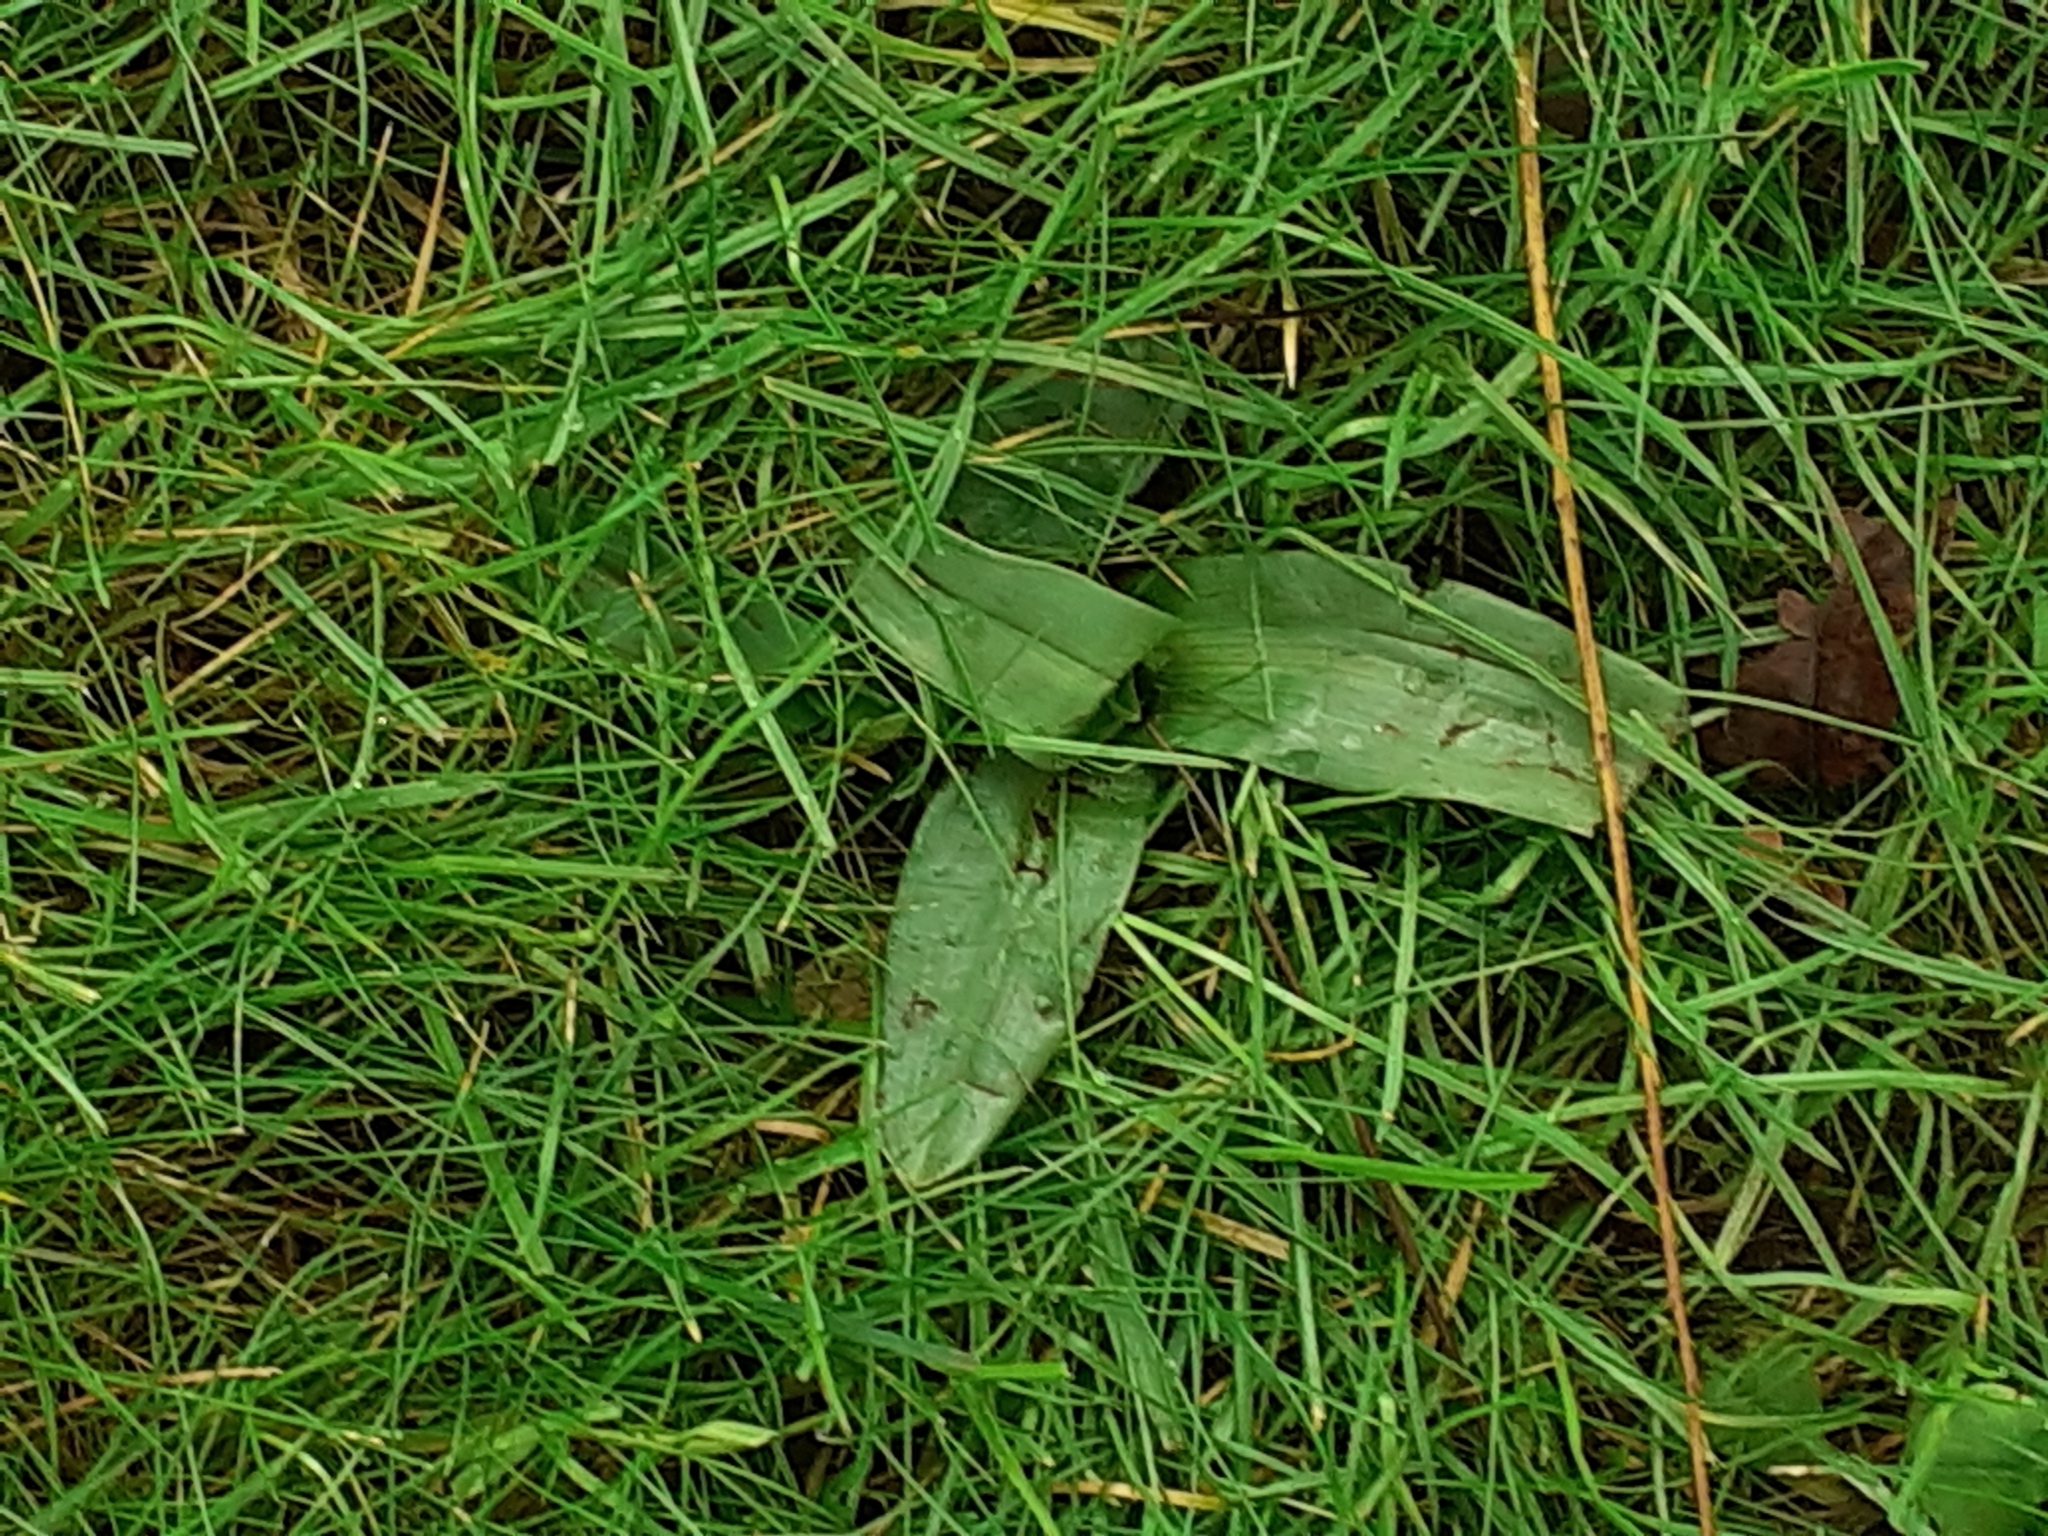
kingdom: Plantae
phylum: Tracheophyta
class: Liliopsida
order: Asparagales
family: Orchidaceae
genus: Ophrys
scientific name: Ophrys apifera
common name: Bee orchid
